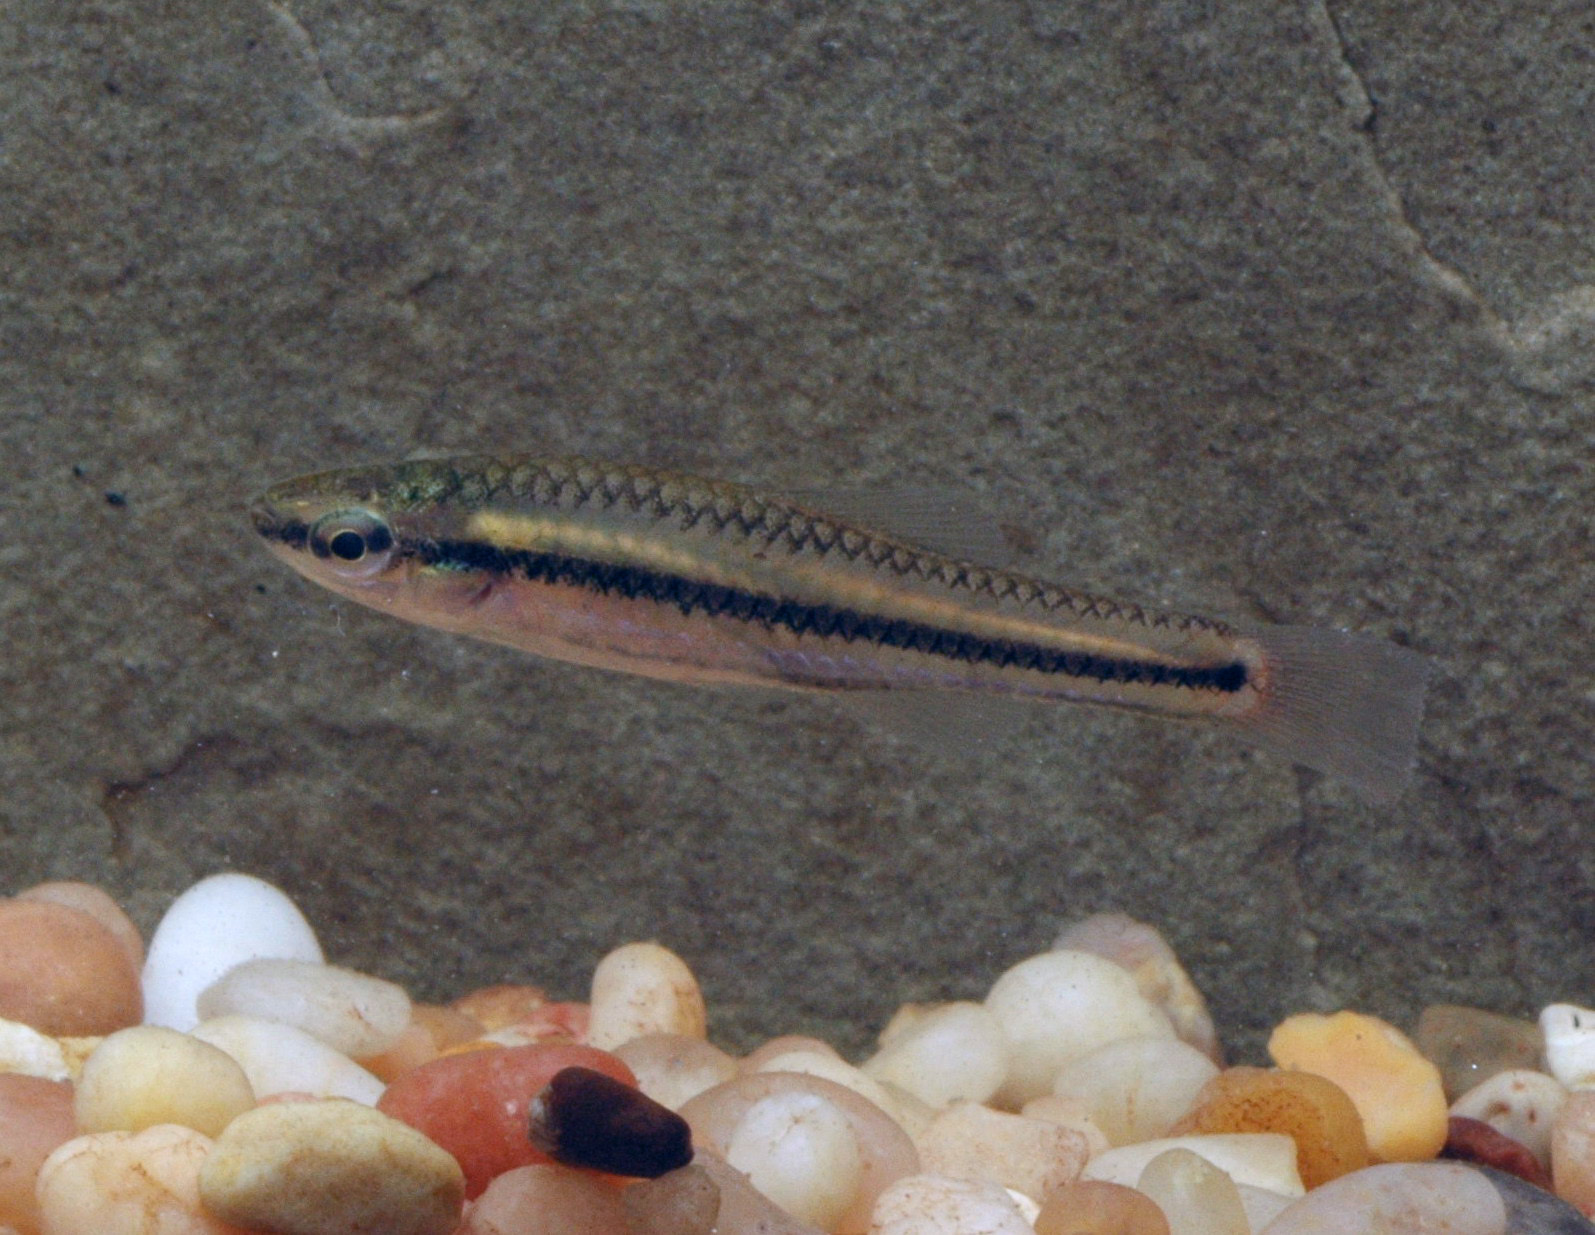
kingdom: Animalia
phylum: Chordata
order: Cyprinodontiformes
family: Fundulidae
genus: Lucania
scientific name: Lucania goodei
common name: Bluefin killifish
